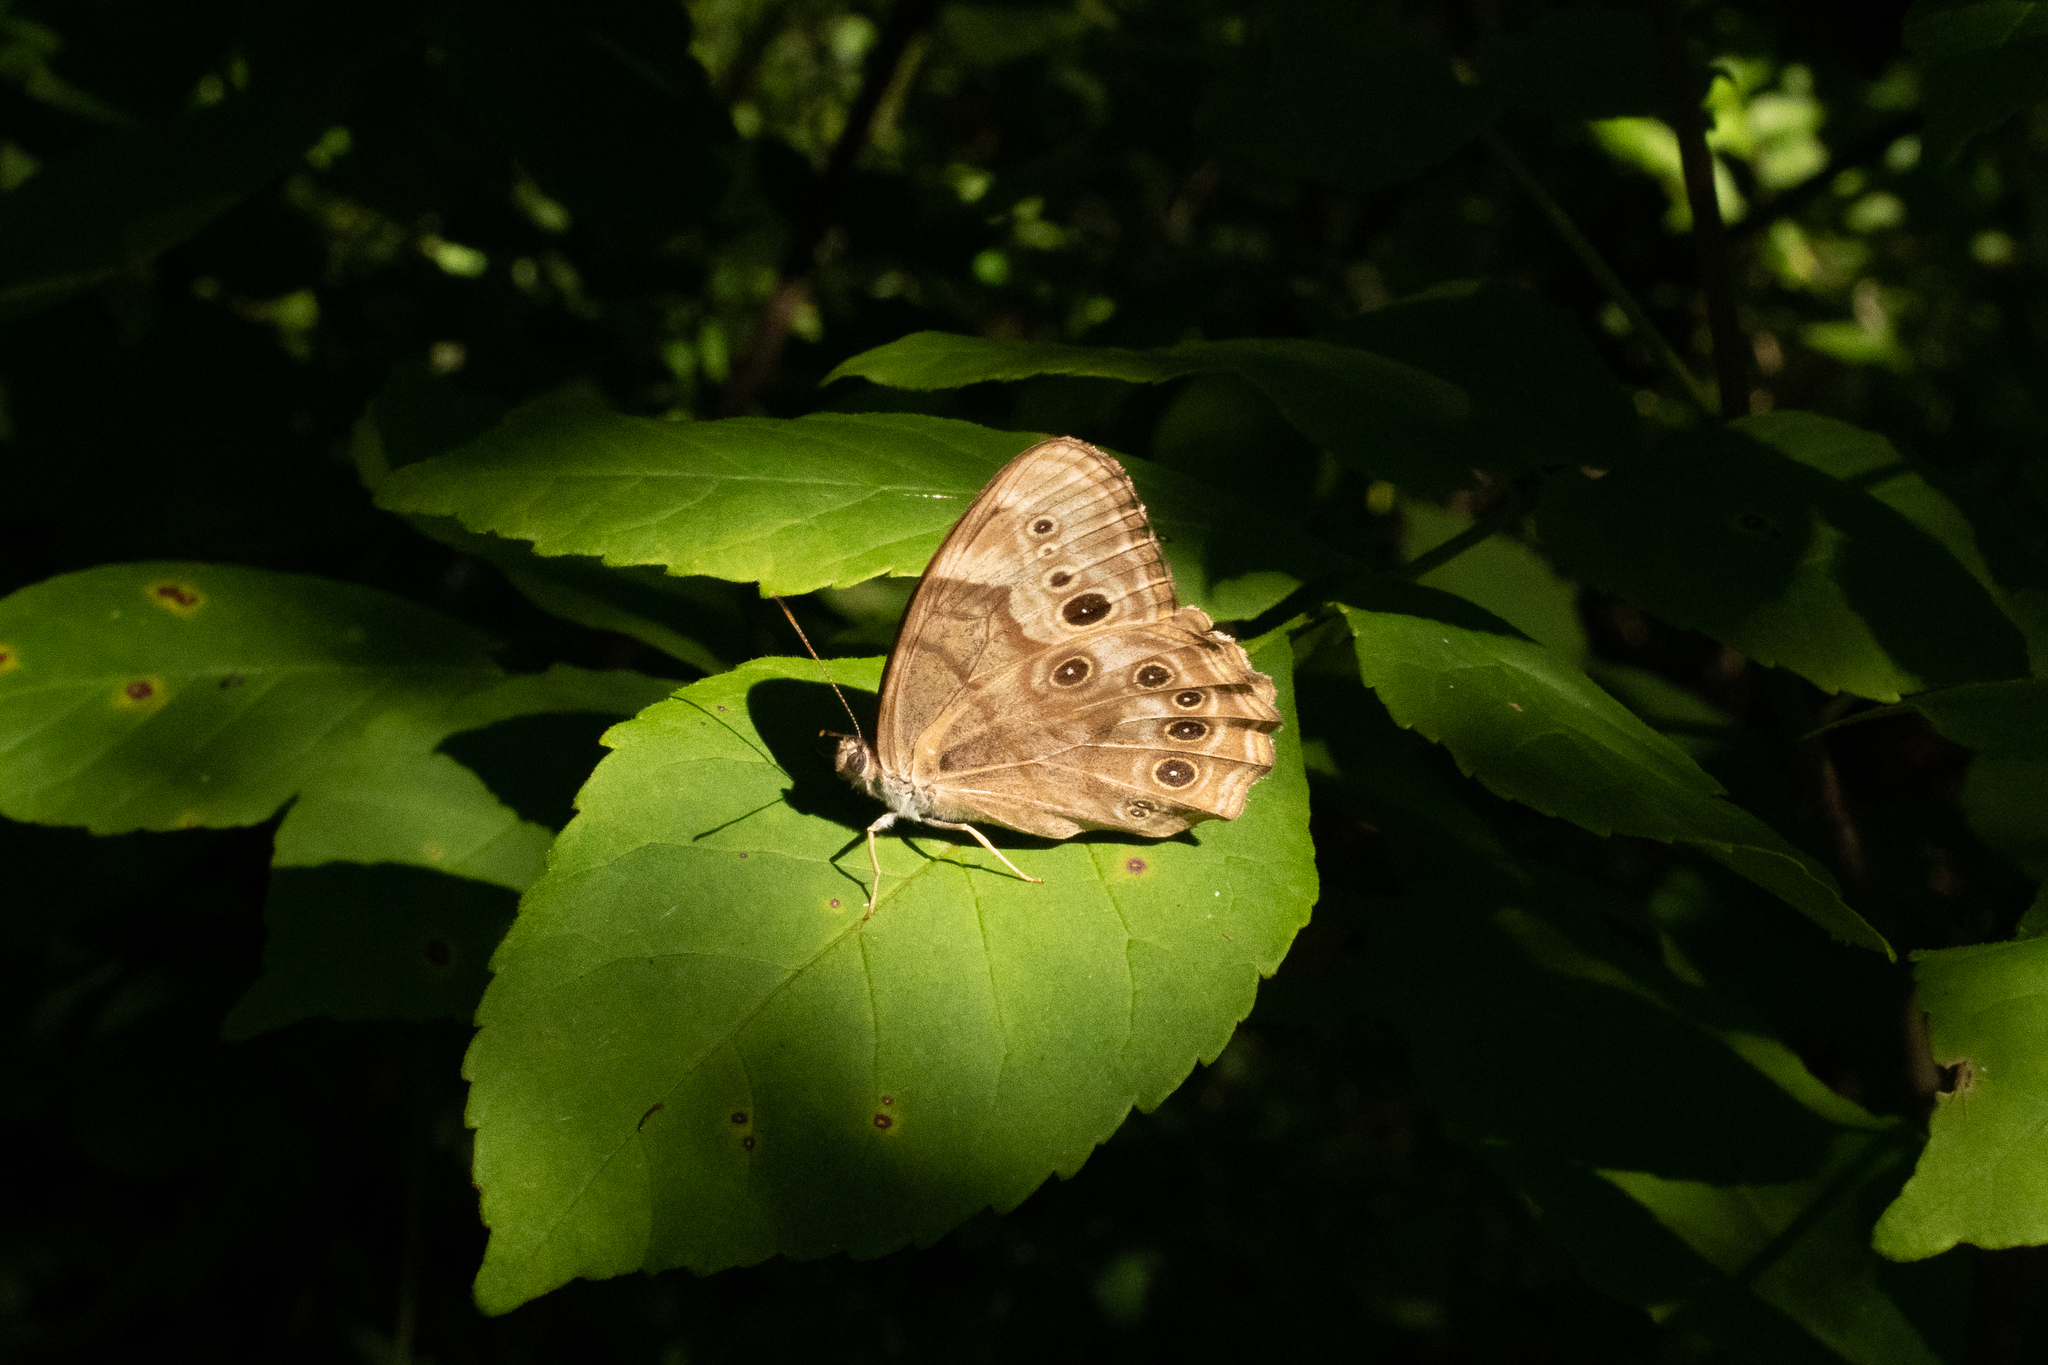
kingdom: Animalia
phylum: Arthropoda
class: Insecta
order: Lepidoptera
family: Nymphalidae
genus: Lethe
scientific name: Lethe anthedon
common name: Northern pearly-eye
